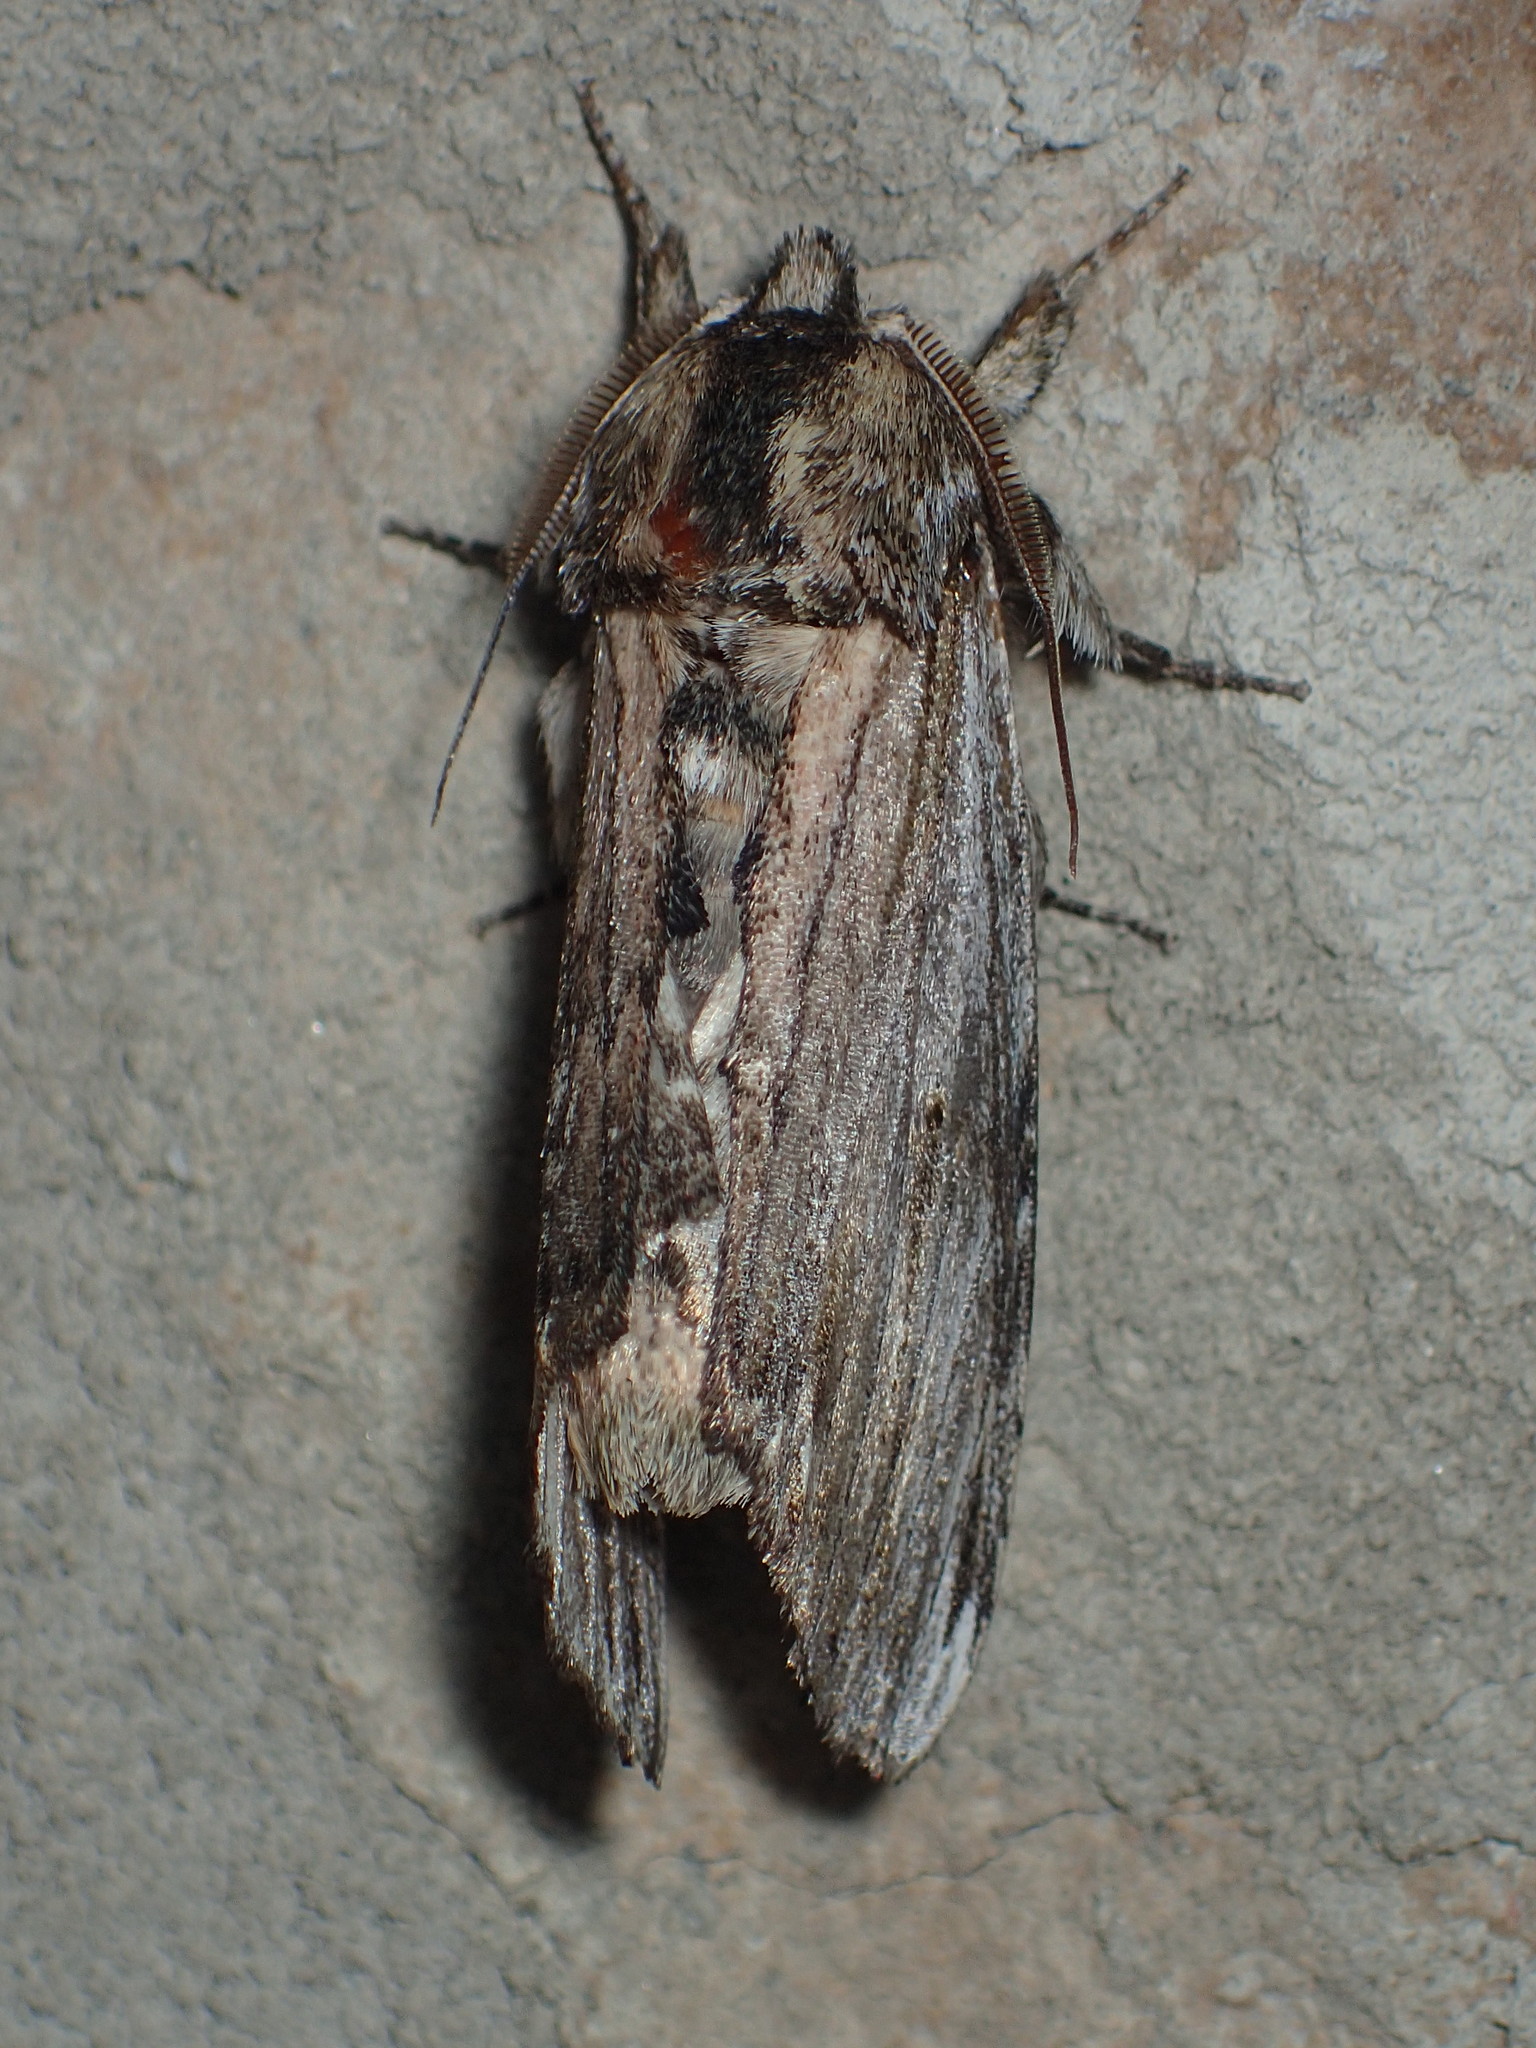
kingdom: Animalia
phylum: Arthropoda
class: Insecta
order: Lepidoptera
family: Notodontidae
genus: Oligocentria
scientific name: Oligocentria Ianassa lignicolor
